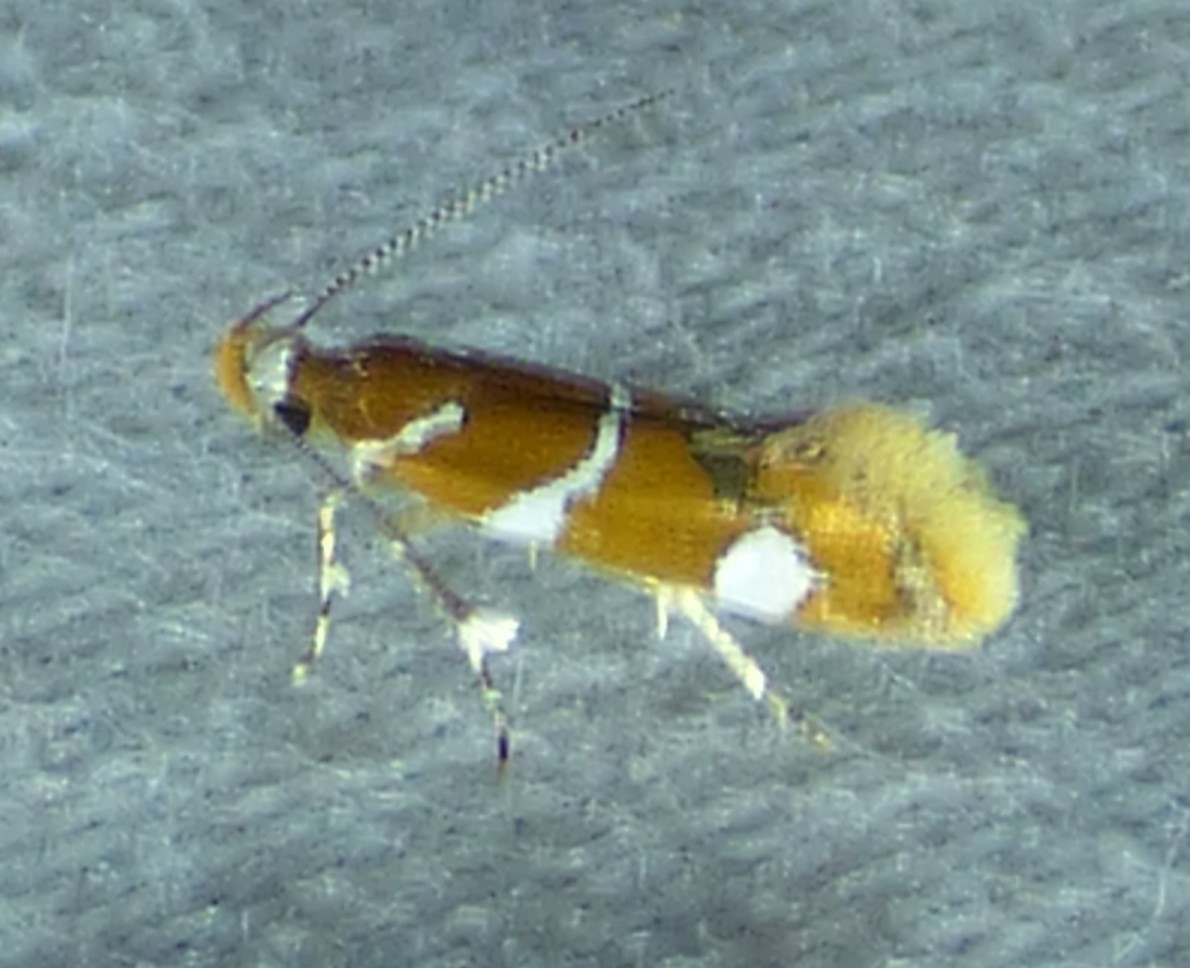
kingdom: Animalia
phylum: Arthropoda
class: Insecta
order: Lepidoptera
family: Oecophoridae
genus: Promalactis
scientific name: Promalactis suzukiella
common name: Moth
